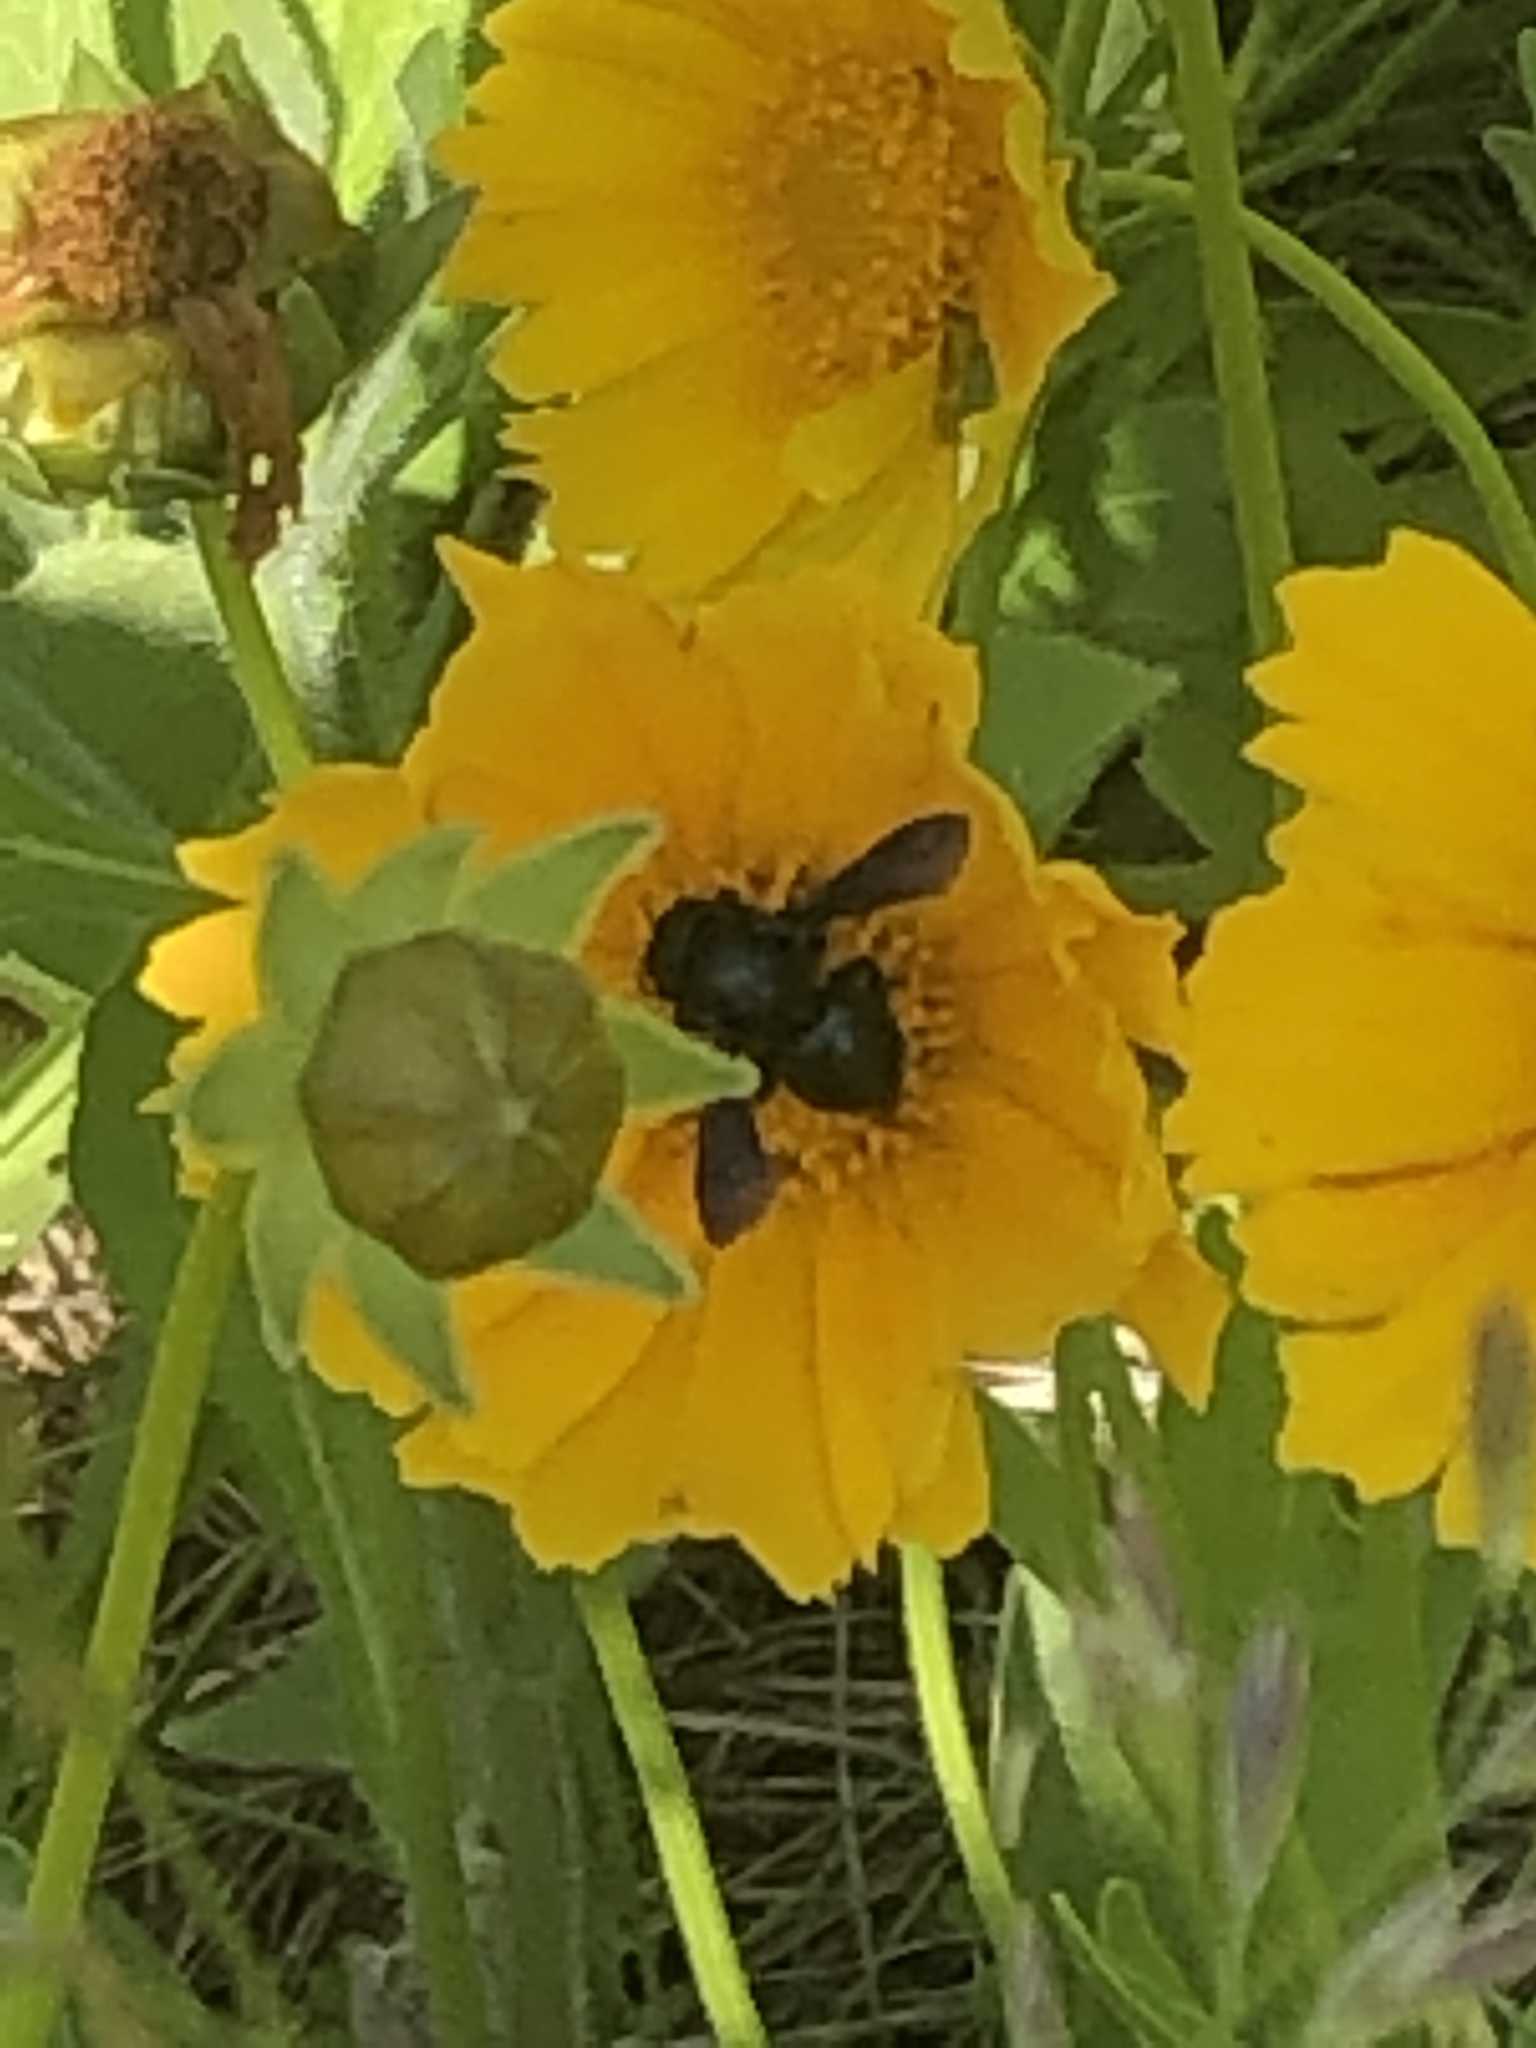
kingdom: Animalia
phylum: Arthropoda
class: Insecta
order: Hymenoptera
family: Megachilidae
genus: Megachile
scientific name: Megachile xylocopoides
